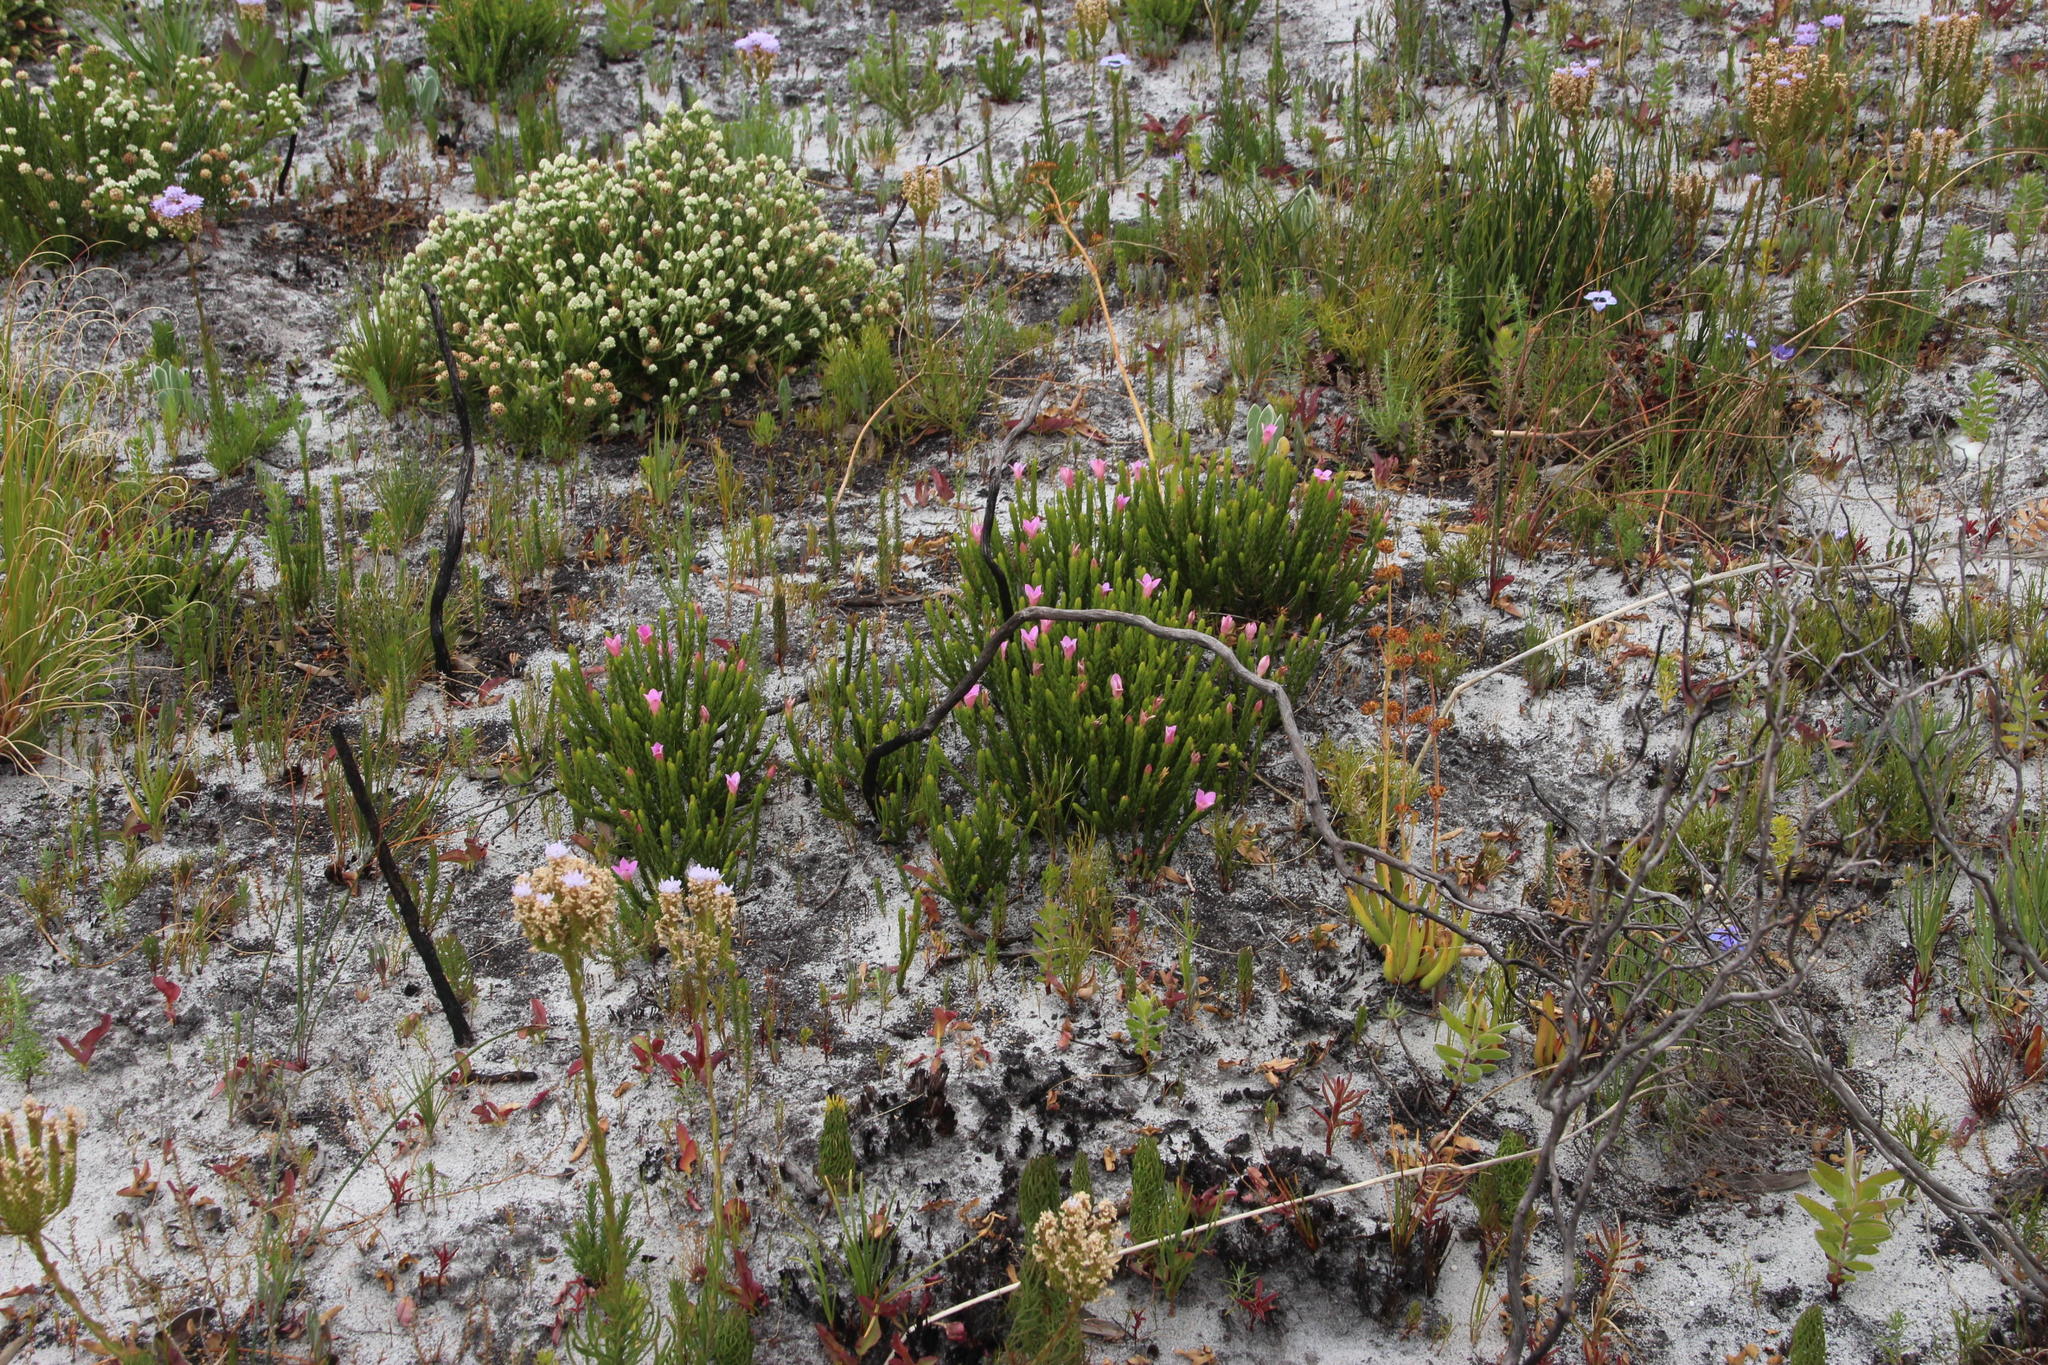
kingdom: Plantae
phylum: Tracheophyta
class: Magnoliopsida
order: Rosales
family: Rhamnaceae
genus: Phylica
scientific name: Phylica imberbis
